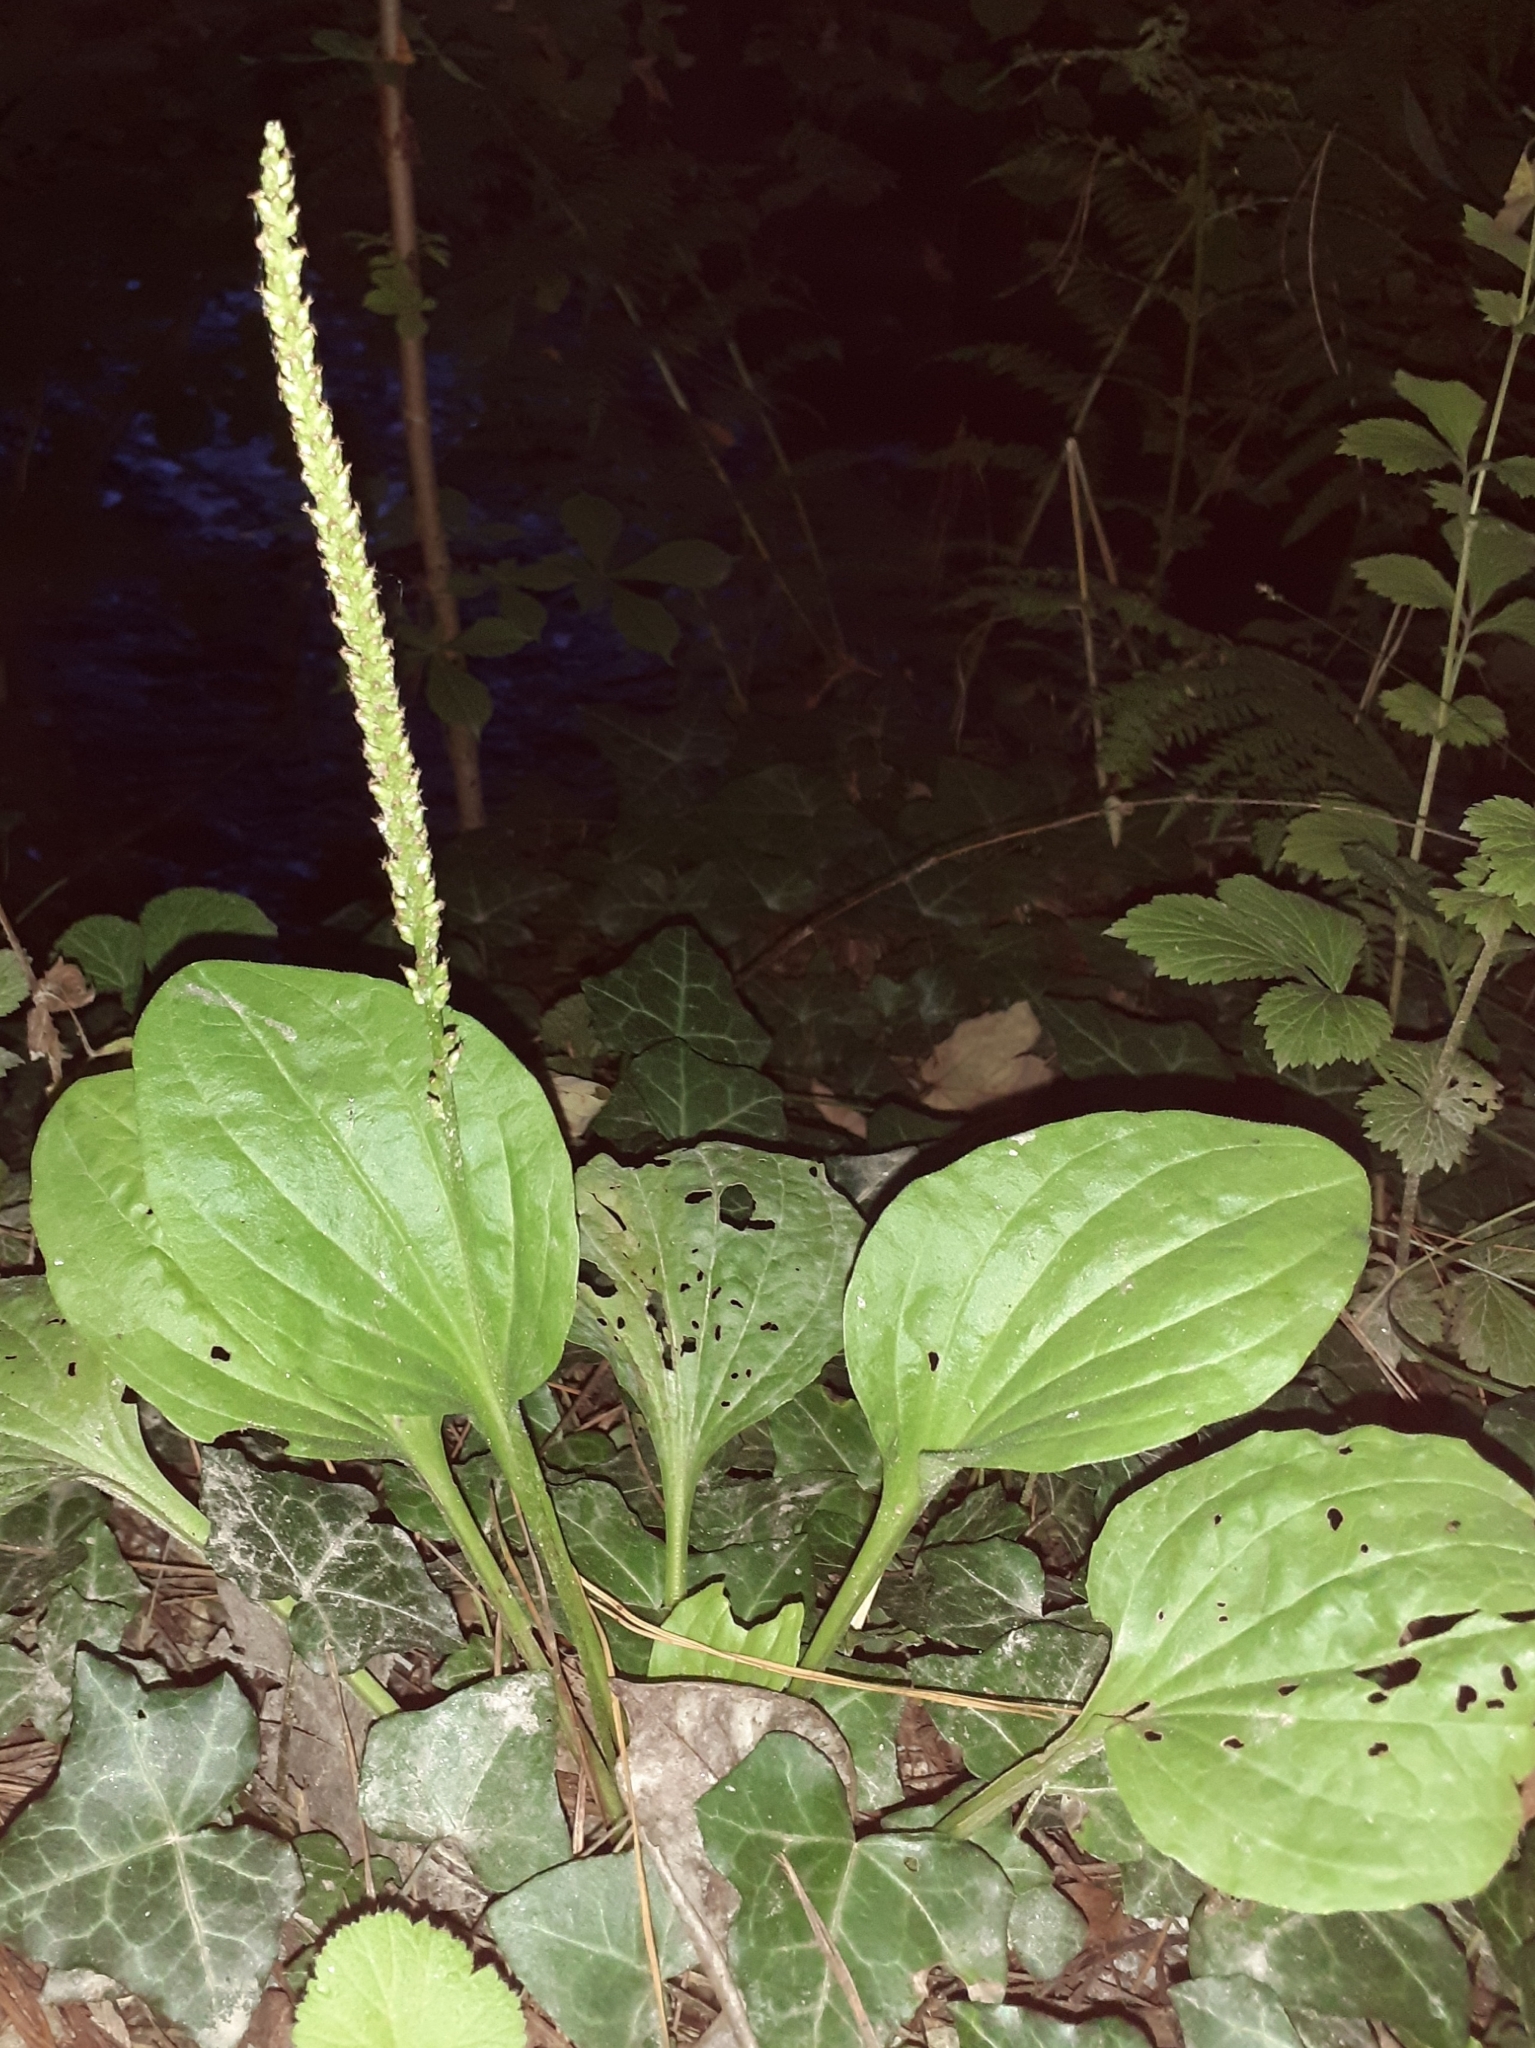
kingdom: Plantae
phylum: Tracheophyta
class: Magnoliopsida
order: Lamiales
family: Plantaginaceae
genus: Plantago
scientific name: Plantago major
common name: Common plantain
